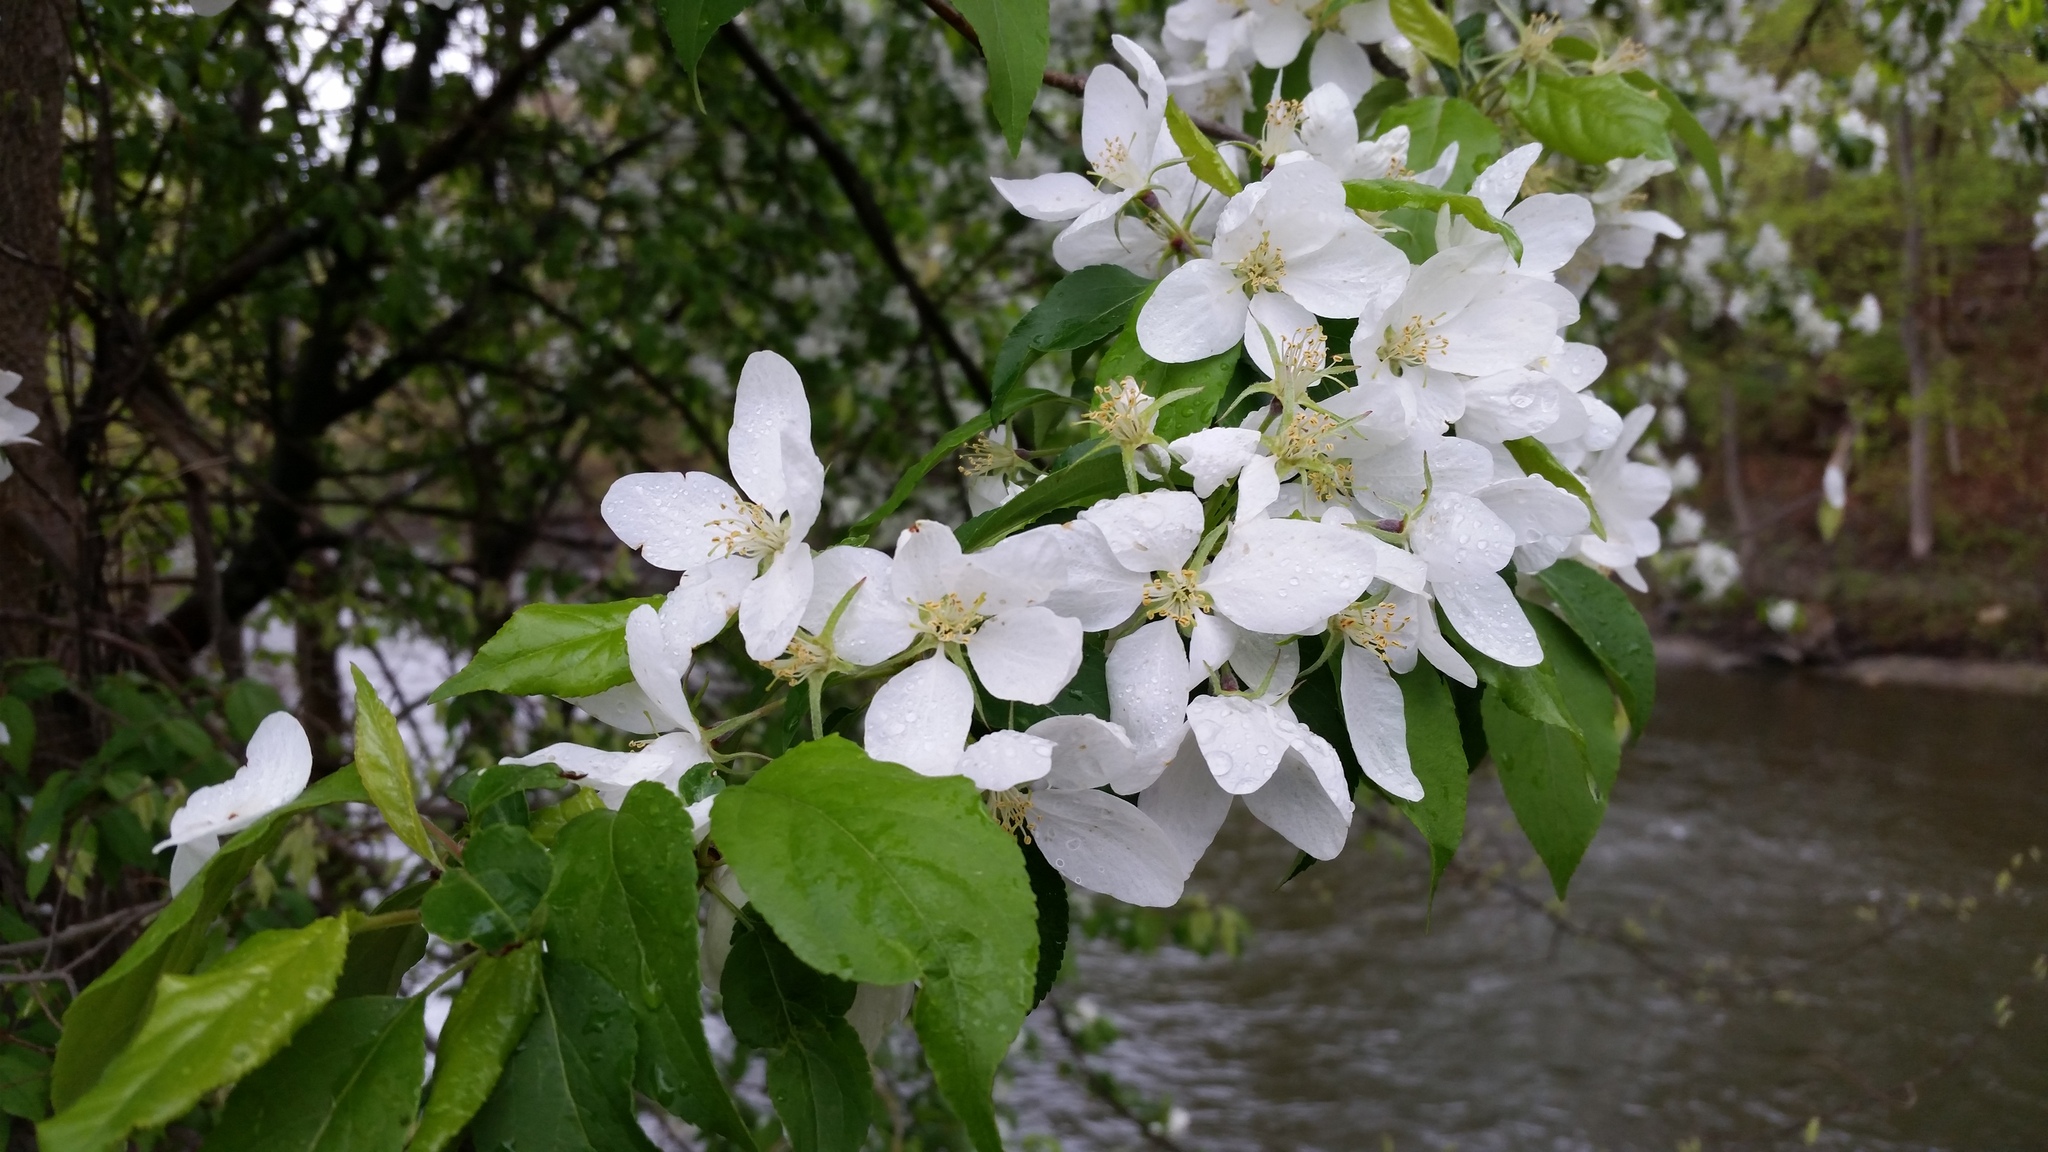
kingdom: Plantae
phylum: Tracheophyta
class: Magnoliopsida
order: Rosales
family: Rosaceae
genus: Malus
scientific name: Malus
